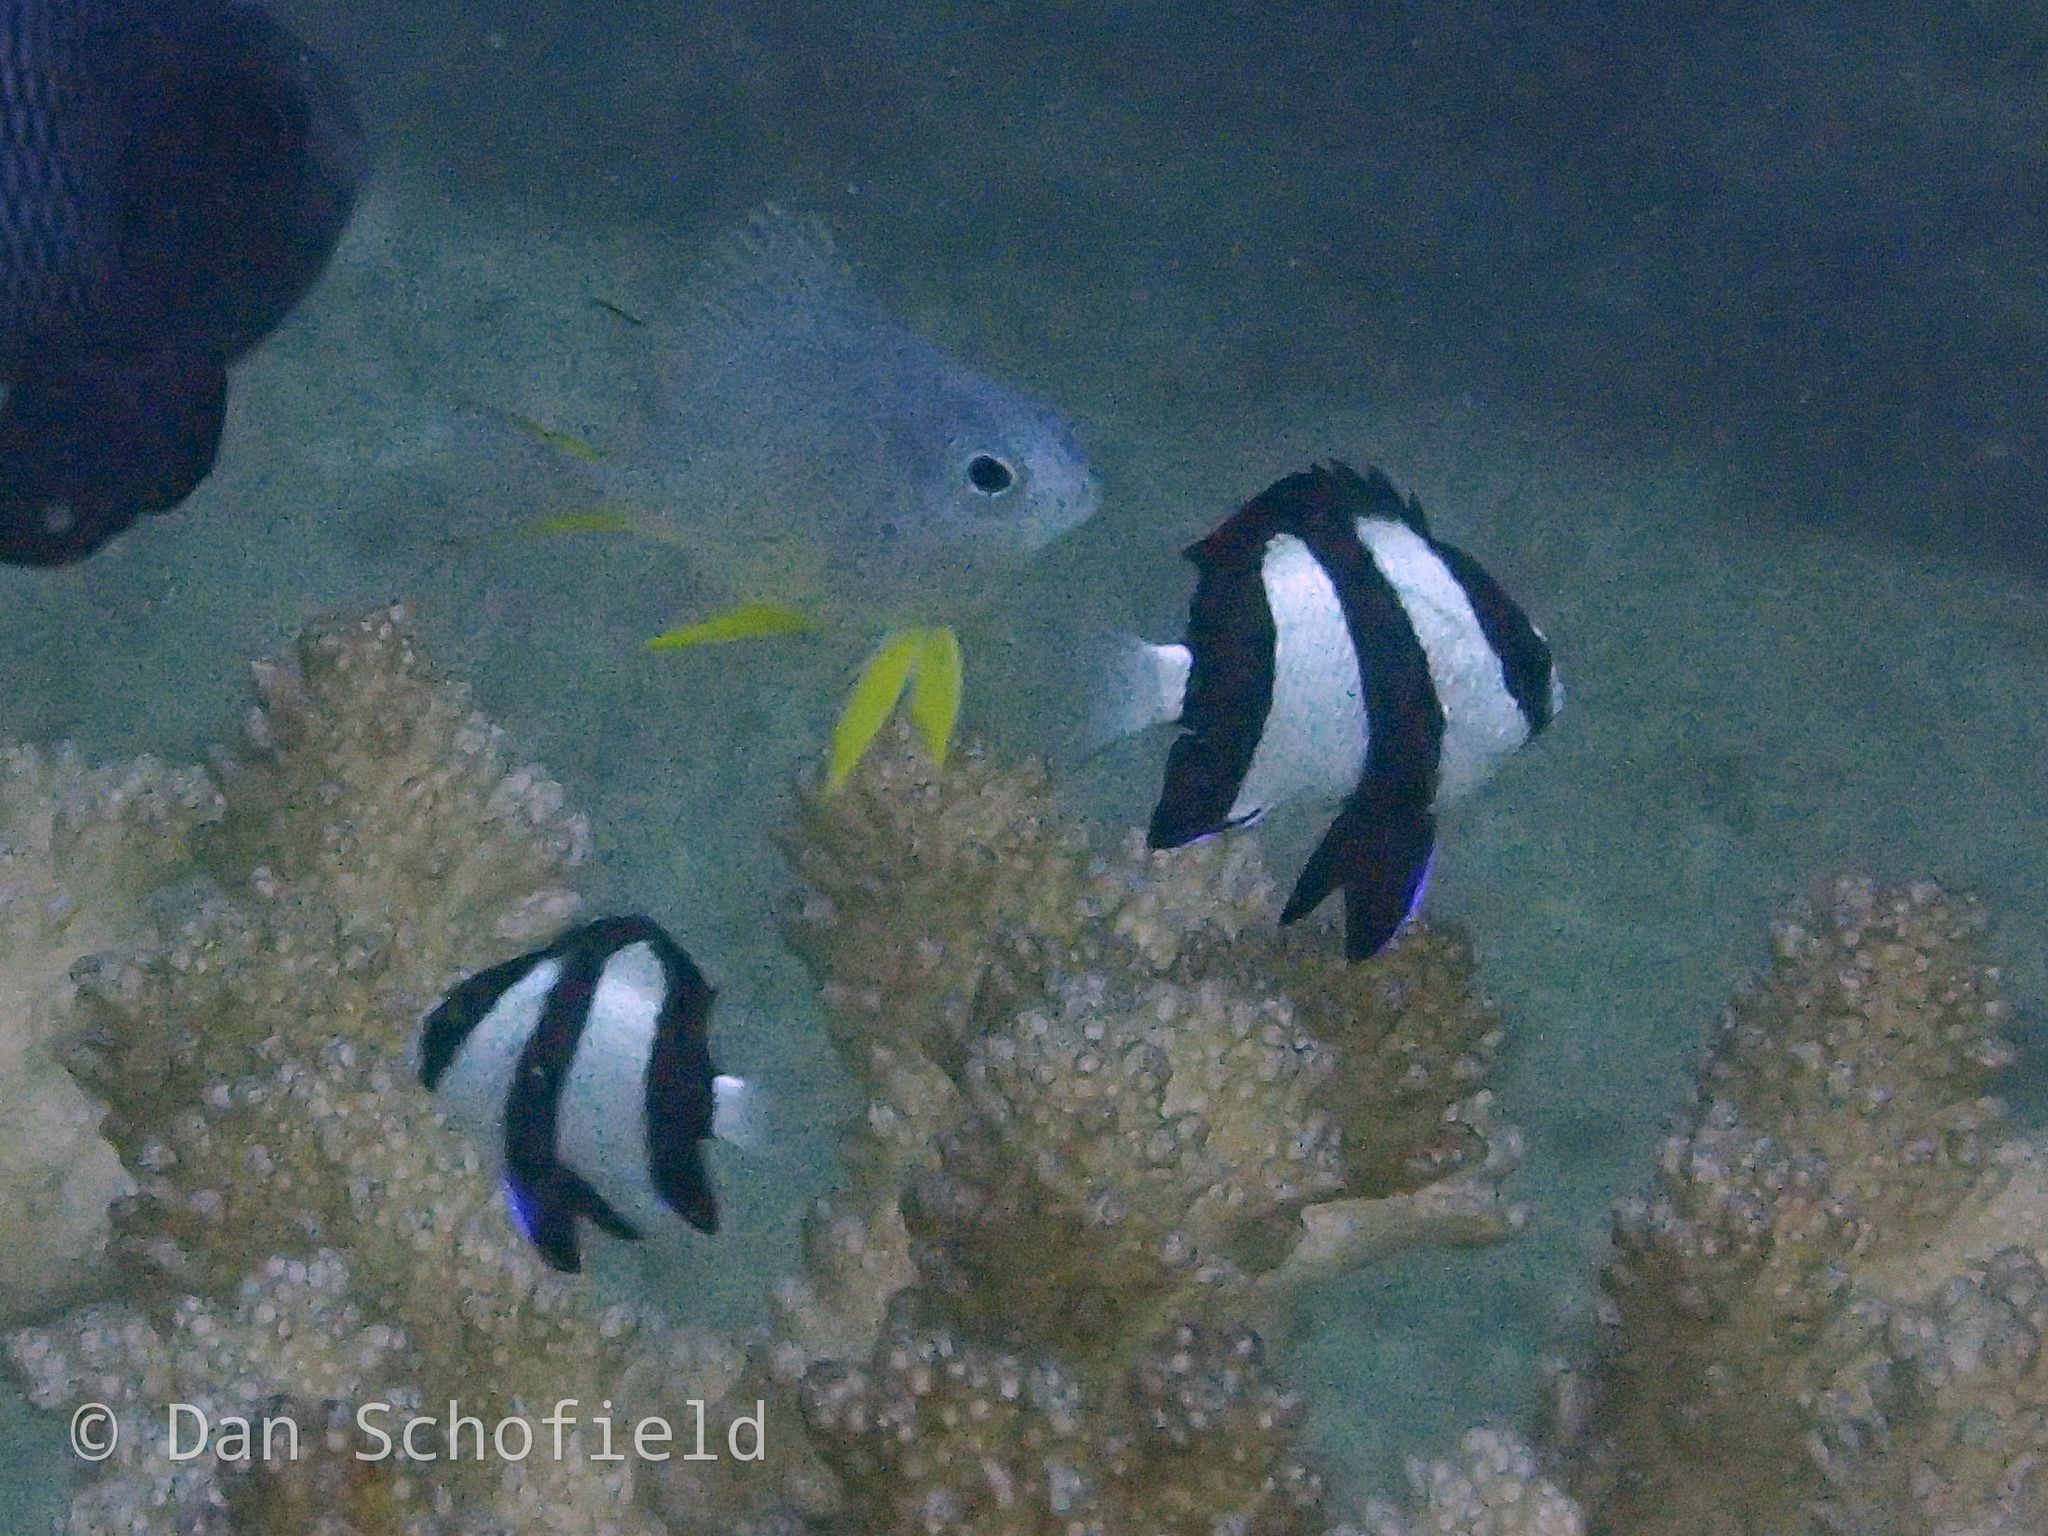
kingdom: Animalia
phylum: Chordata
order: Perciformes
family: Pomacentridae
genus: Dascyllus
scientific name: Dascyllus aruanus
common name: Humbug dascyllus
